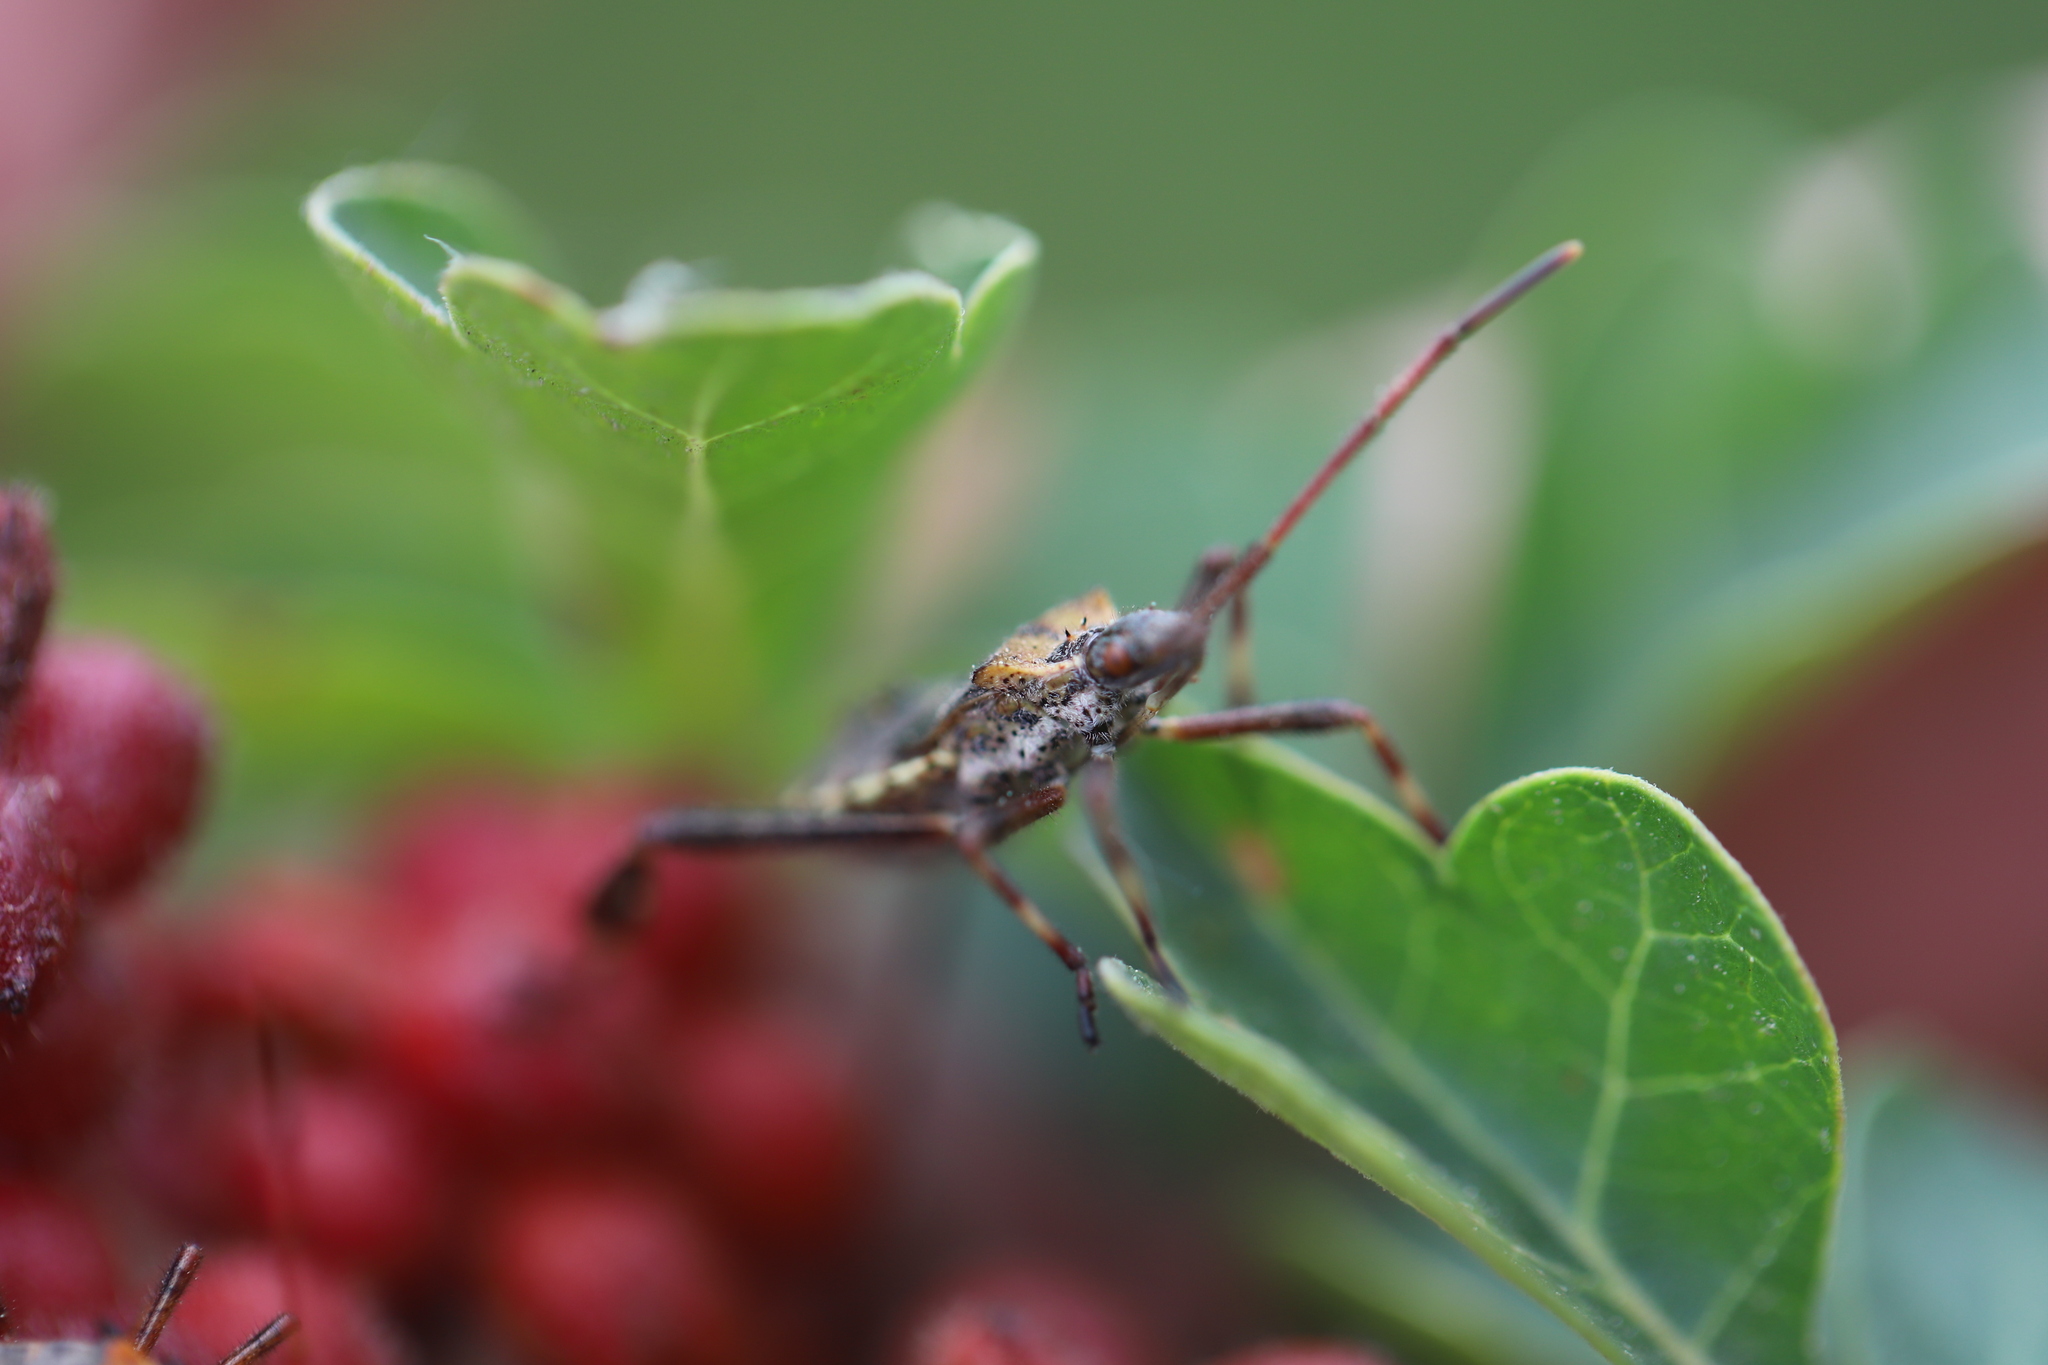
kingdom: Animalia
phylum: Arthropoda
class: Insecta
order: Hemiptera
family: Coreidae
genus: Leptoglossus
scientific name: Leptoglossus clypealis
